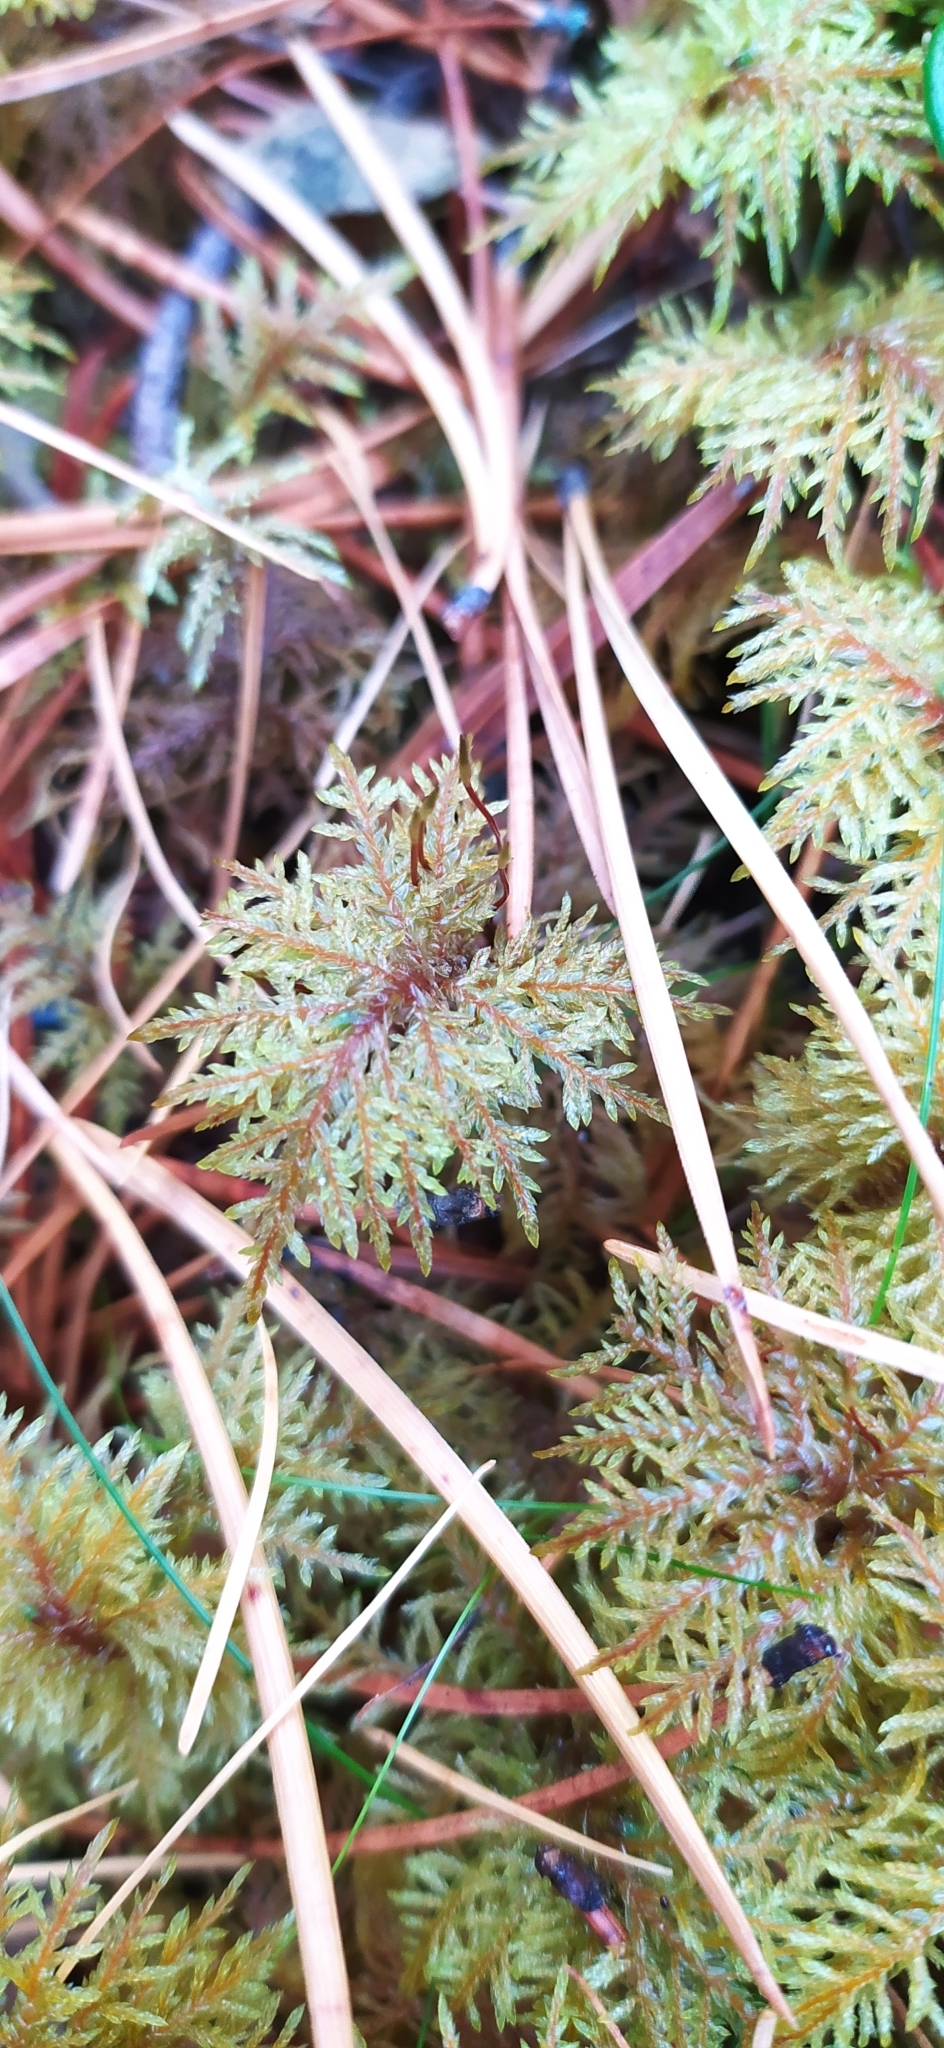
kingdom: Plantae
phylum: Bryophyta
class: Bryopsida
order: Hypnales
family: Hylocomiaceae
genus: Hylocomium
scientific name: Hylocomium splendens
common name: Stairstep moss
